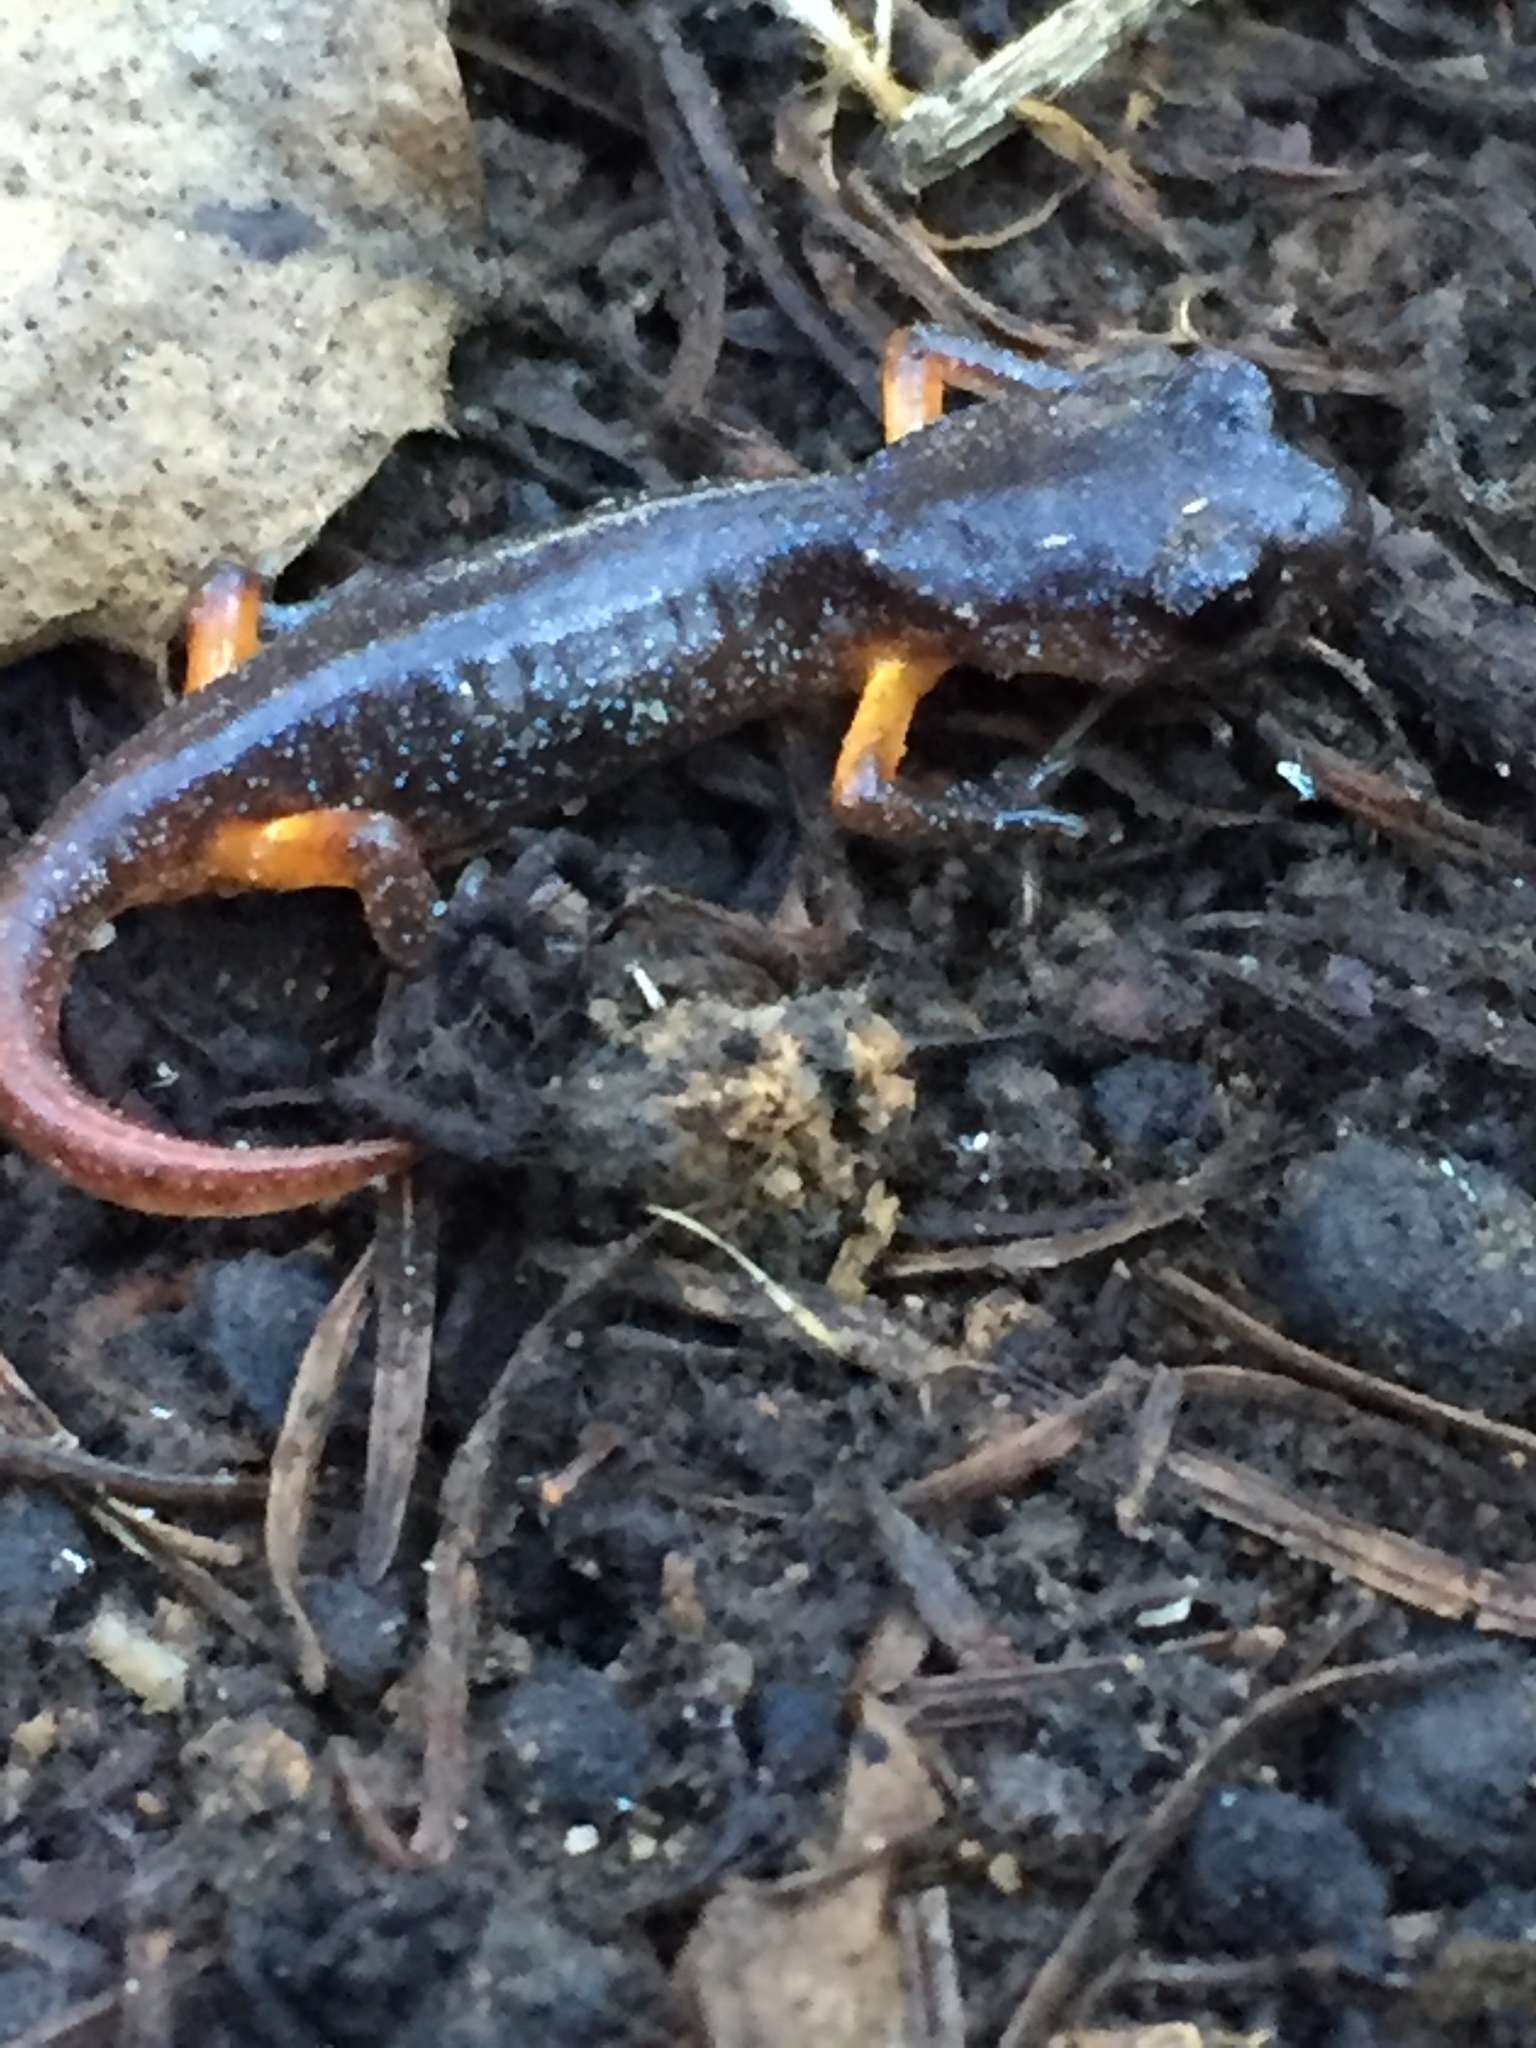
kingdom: Animalia
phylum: Chordata
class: Amphibia
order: Caudata
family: Plethodontidae
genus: Ensatina
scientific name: Ensatina eschscholtzii
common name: Ensatina
